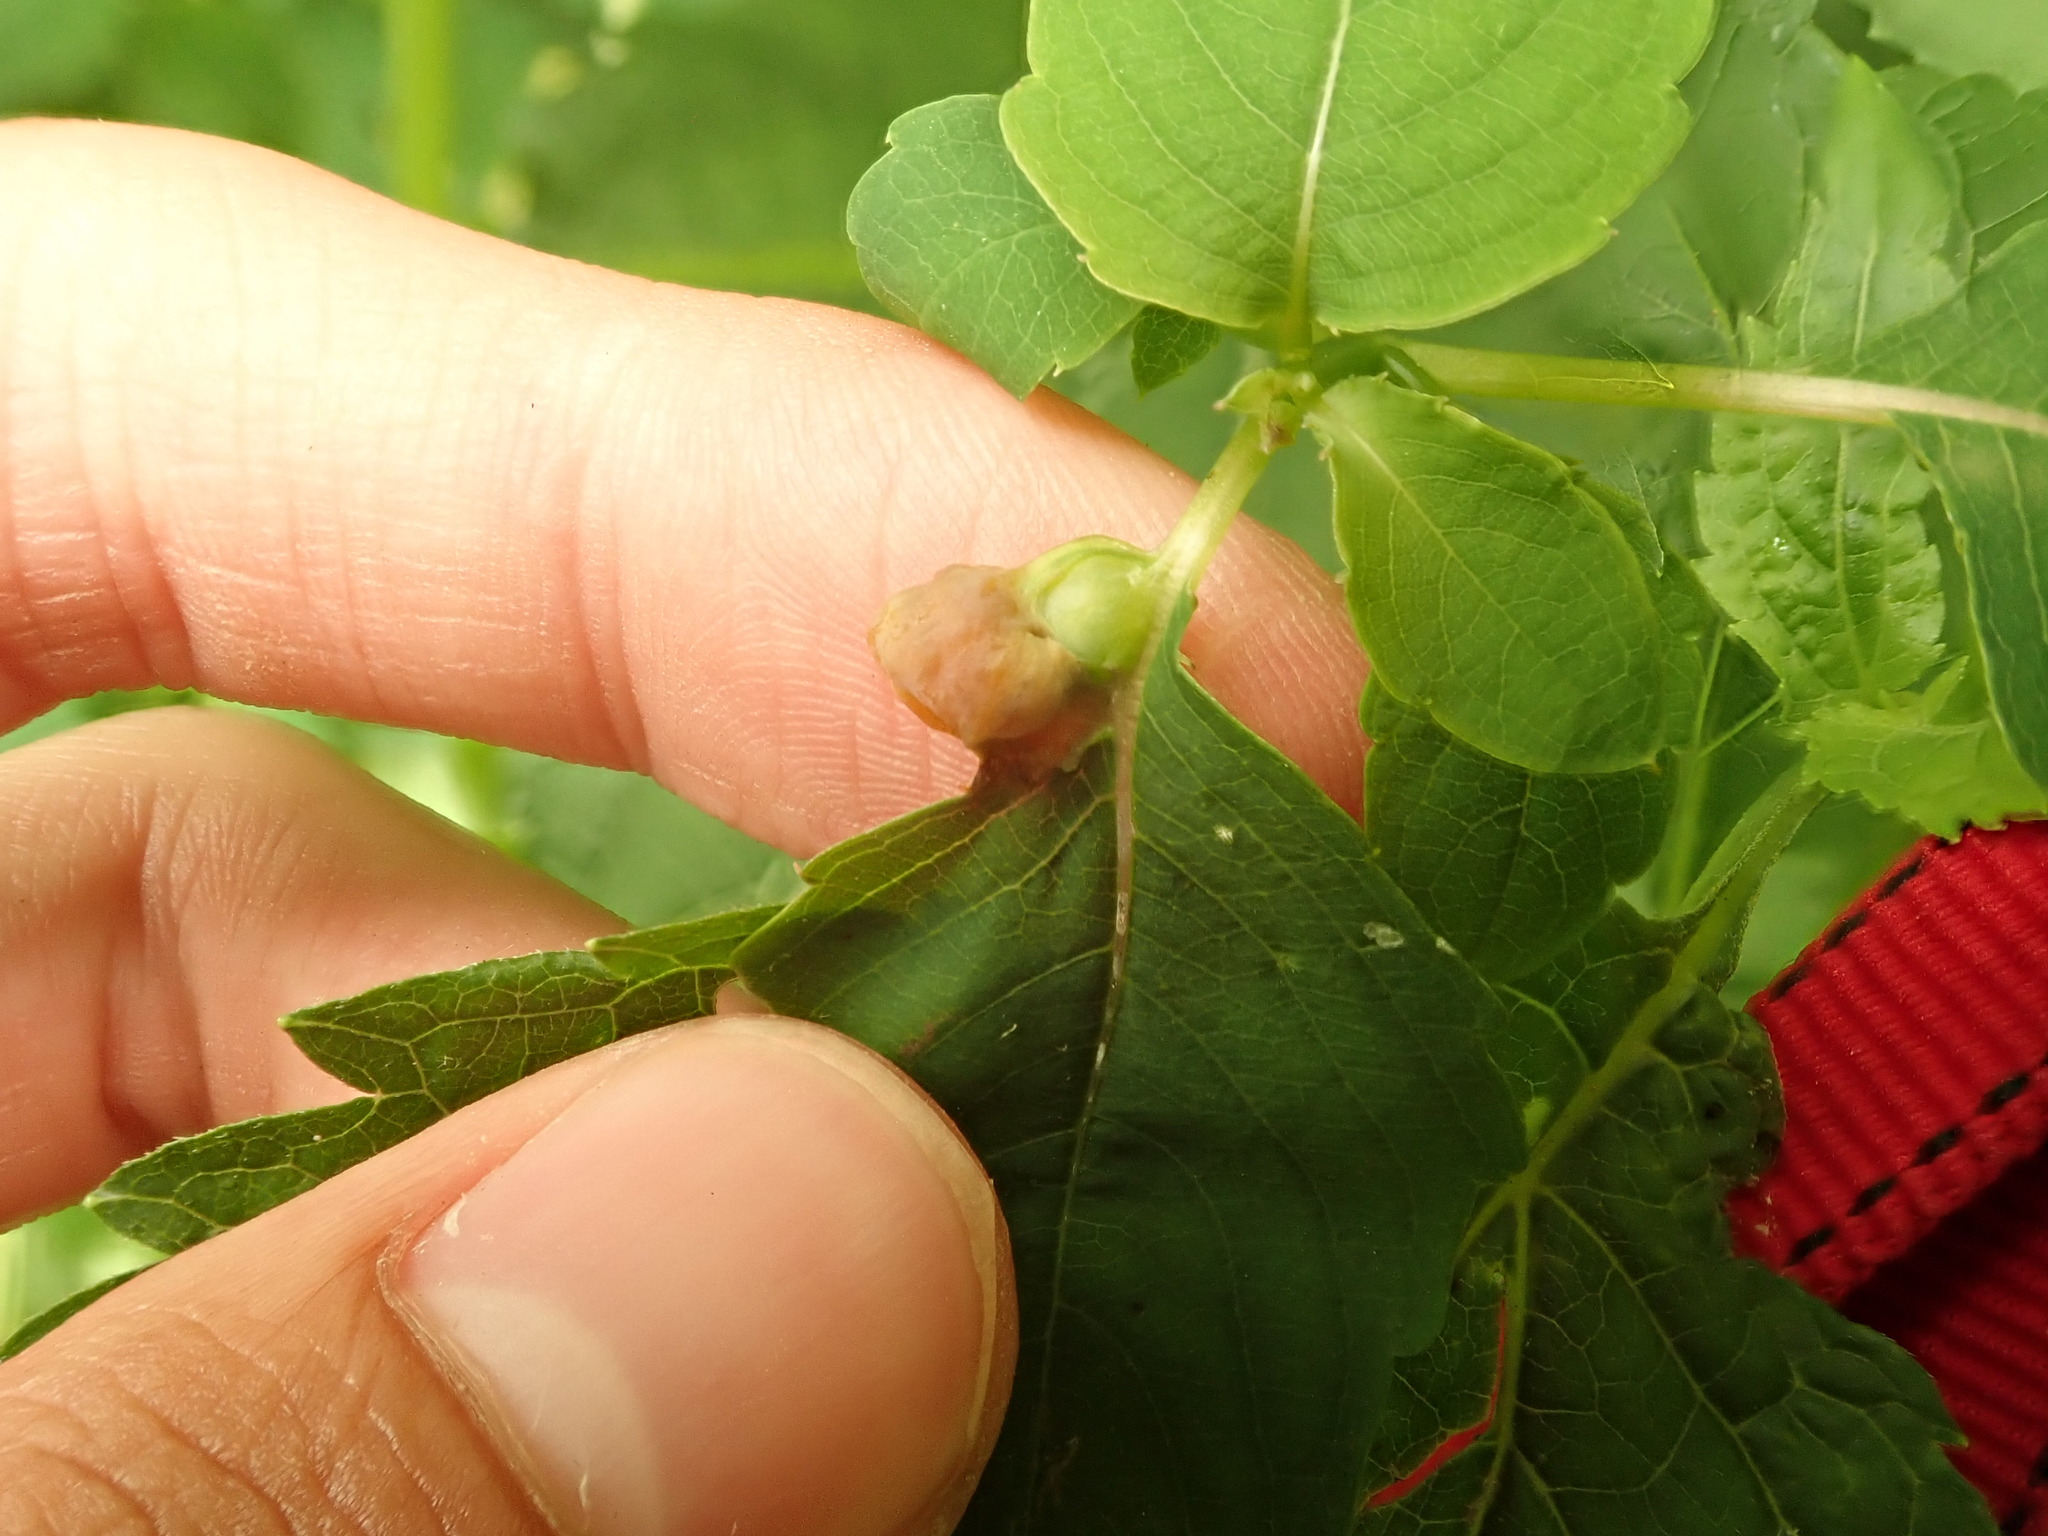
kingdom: Animalia
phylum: Arthropoda
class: Insecta
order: Diptera
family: Cecidomyiidae
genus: Schizomyia
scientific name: Schizomyia impatientis
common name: Jewelweed gall midge
